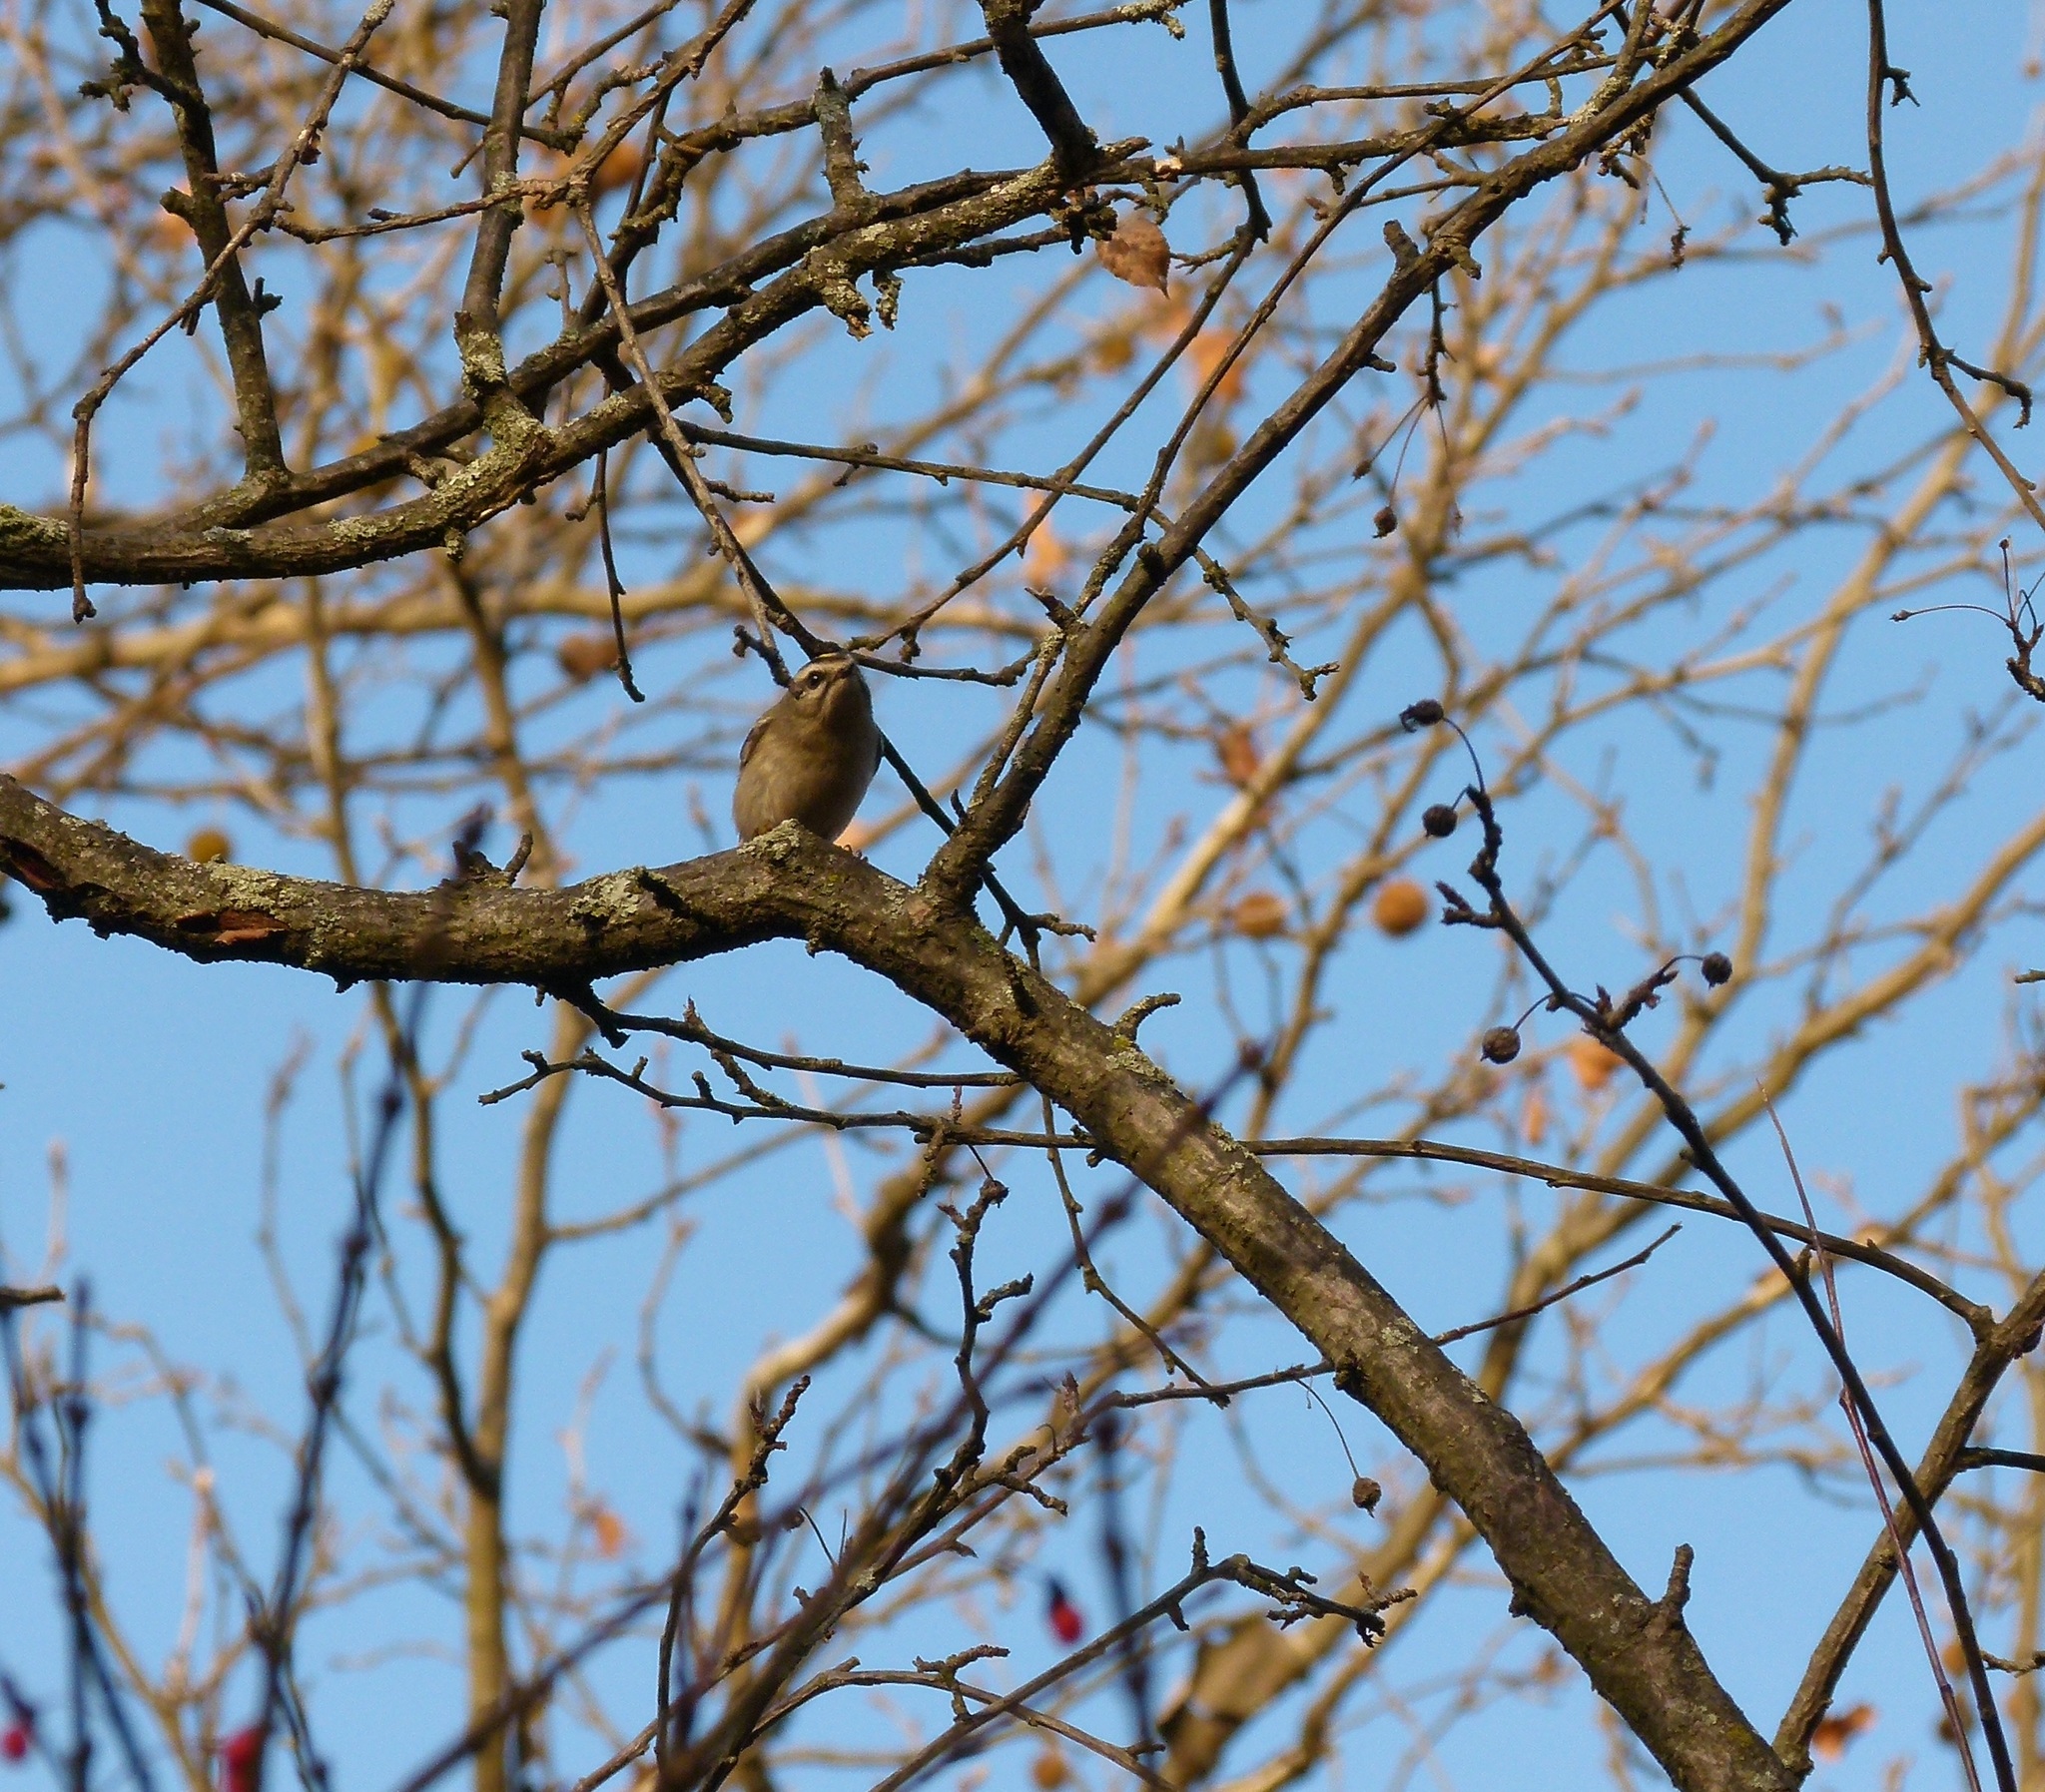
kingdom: Animalia
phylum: Chordata
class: Aves
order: Passeriformes
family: Regulidae
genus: Regulus
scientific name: Regulus satrapa
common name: Golden-crowned kinglet
